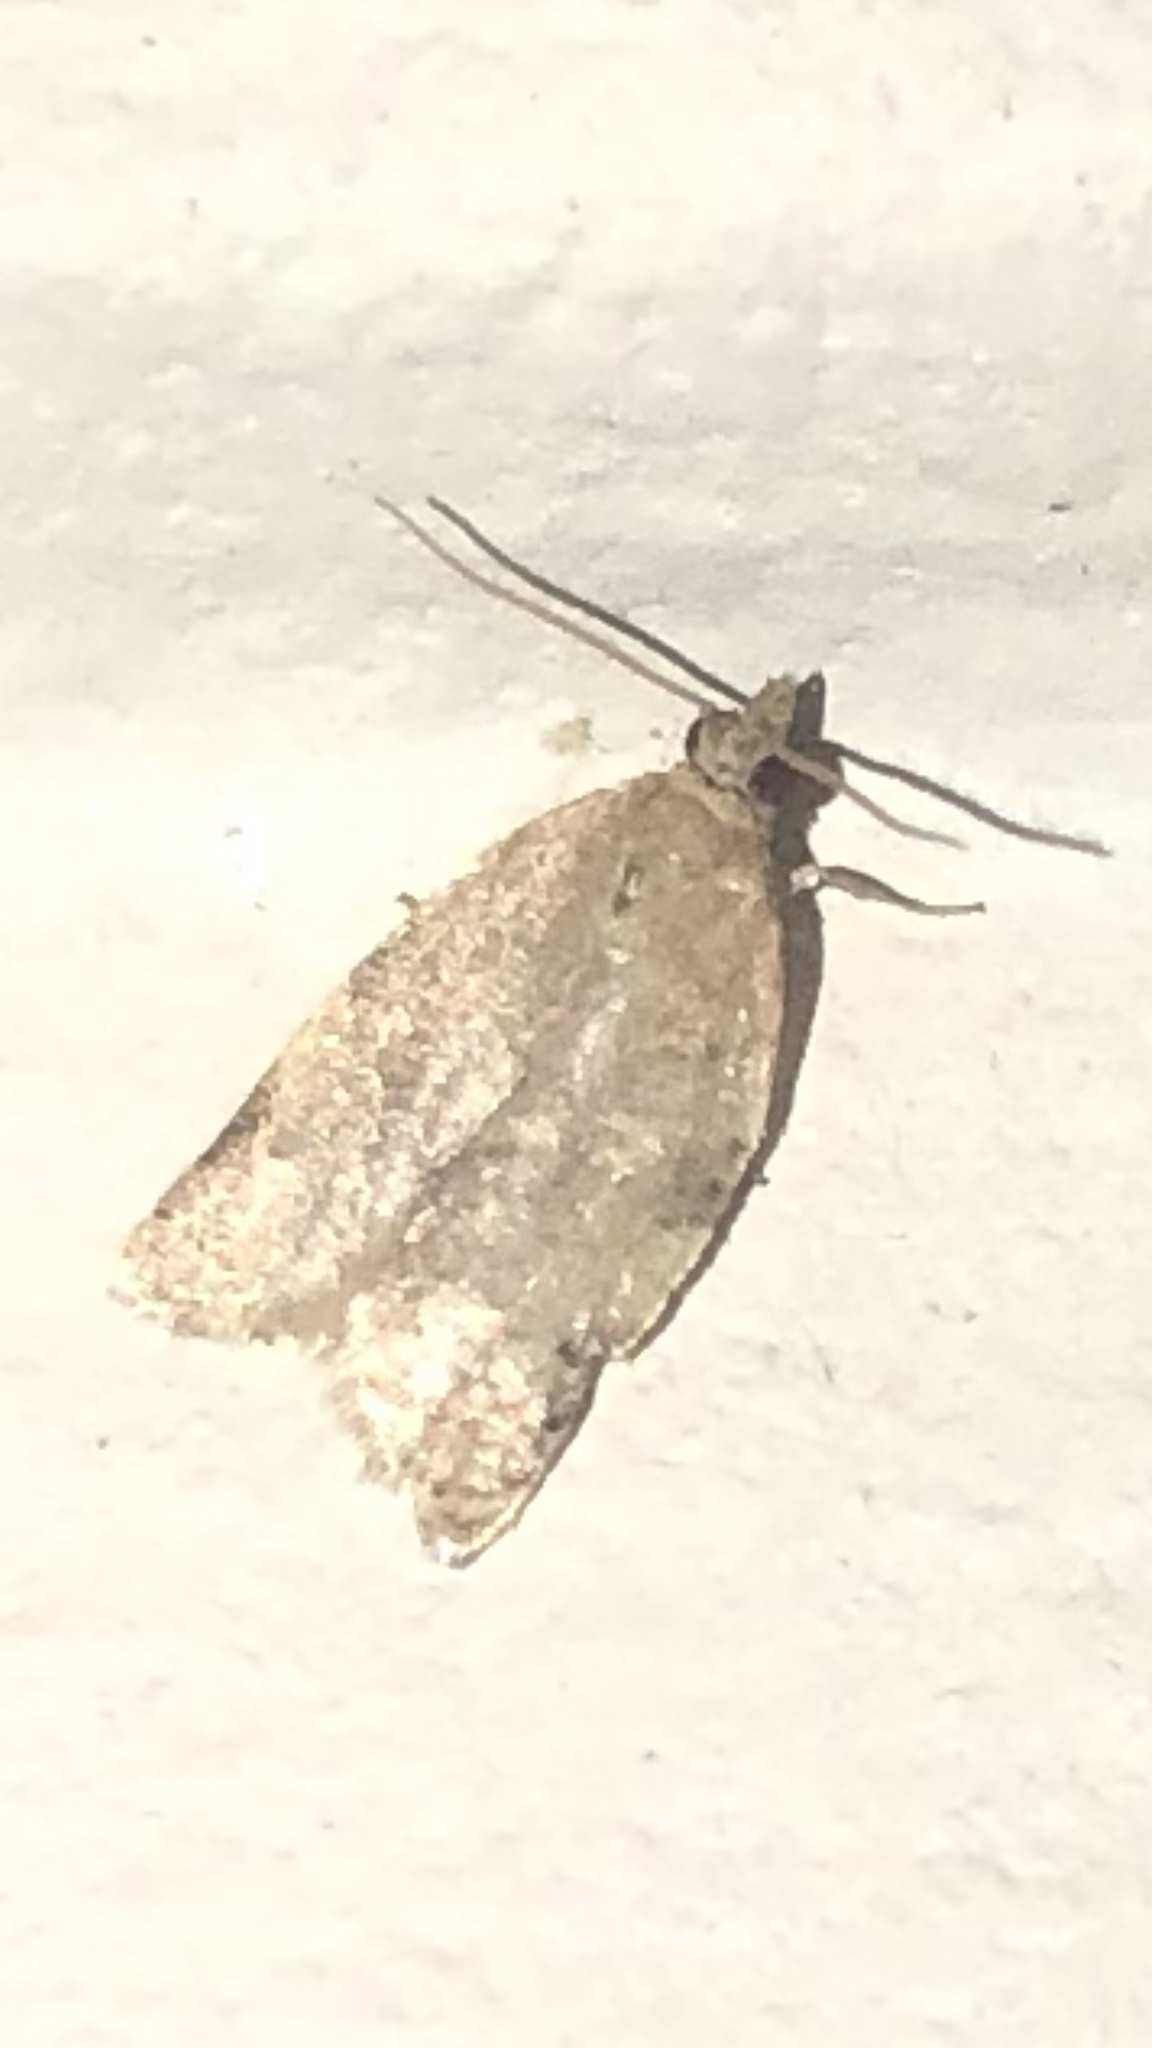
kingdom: Animalia
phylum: Arthropoda
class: Insecta
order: Lepidoptera
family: Tortricidae
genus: Clepsis
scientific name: Clepsis virescana
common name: Greenish apple moth
